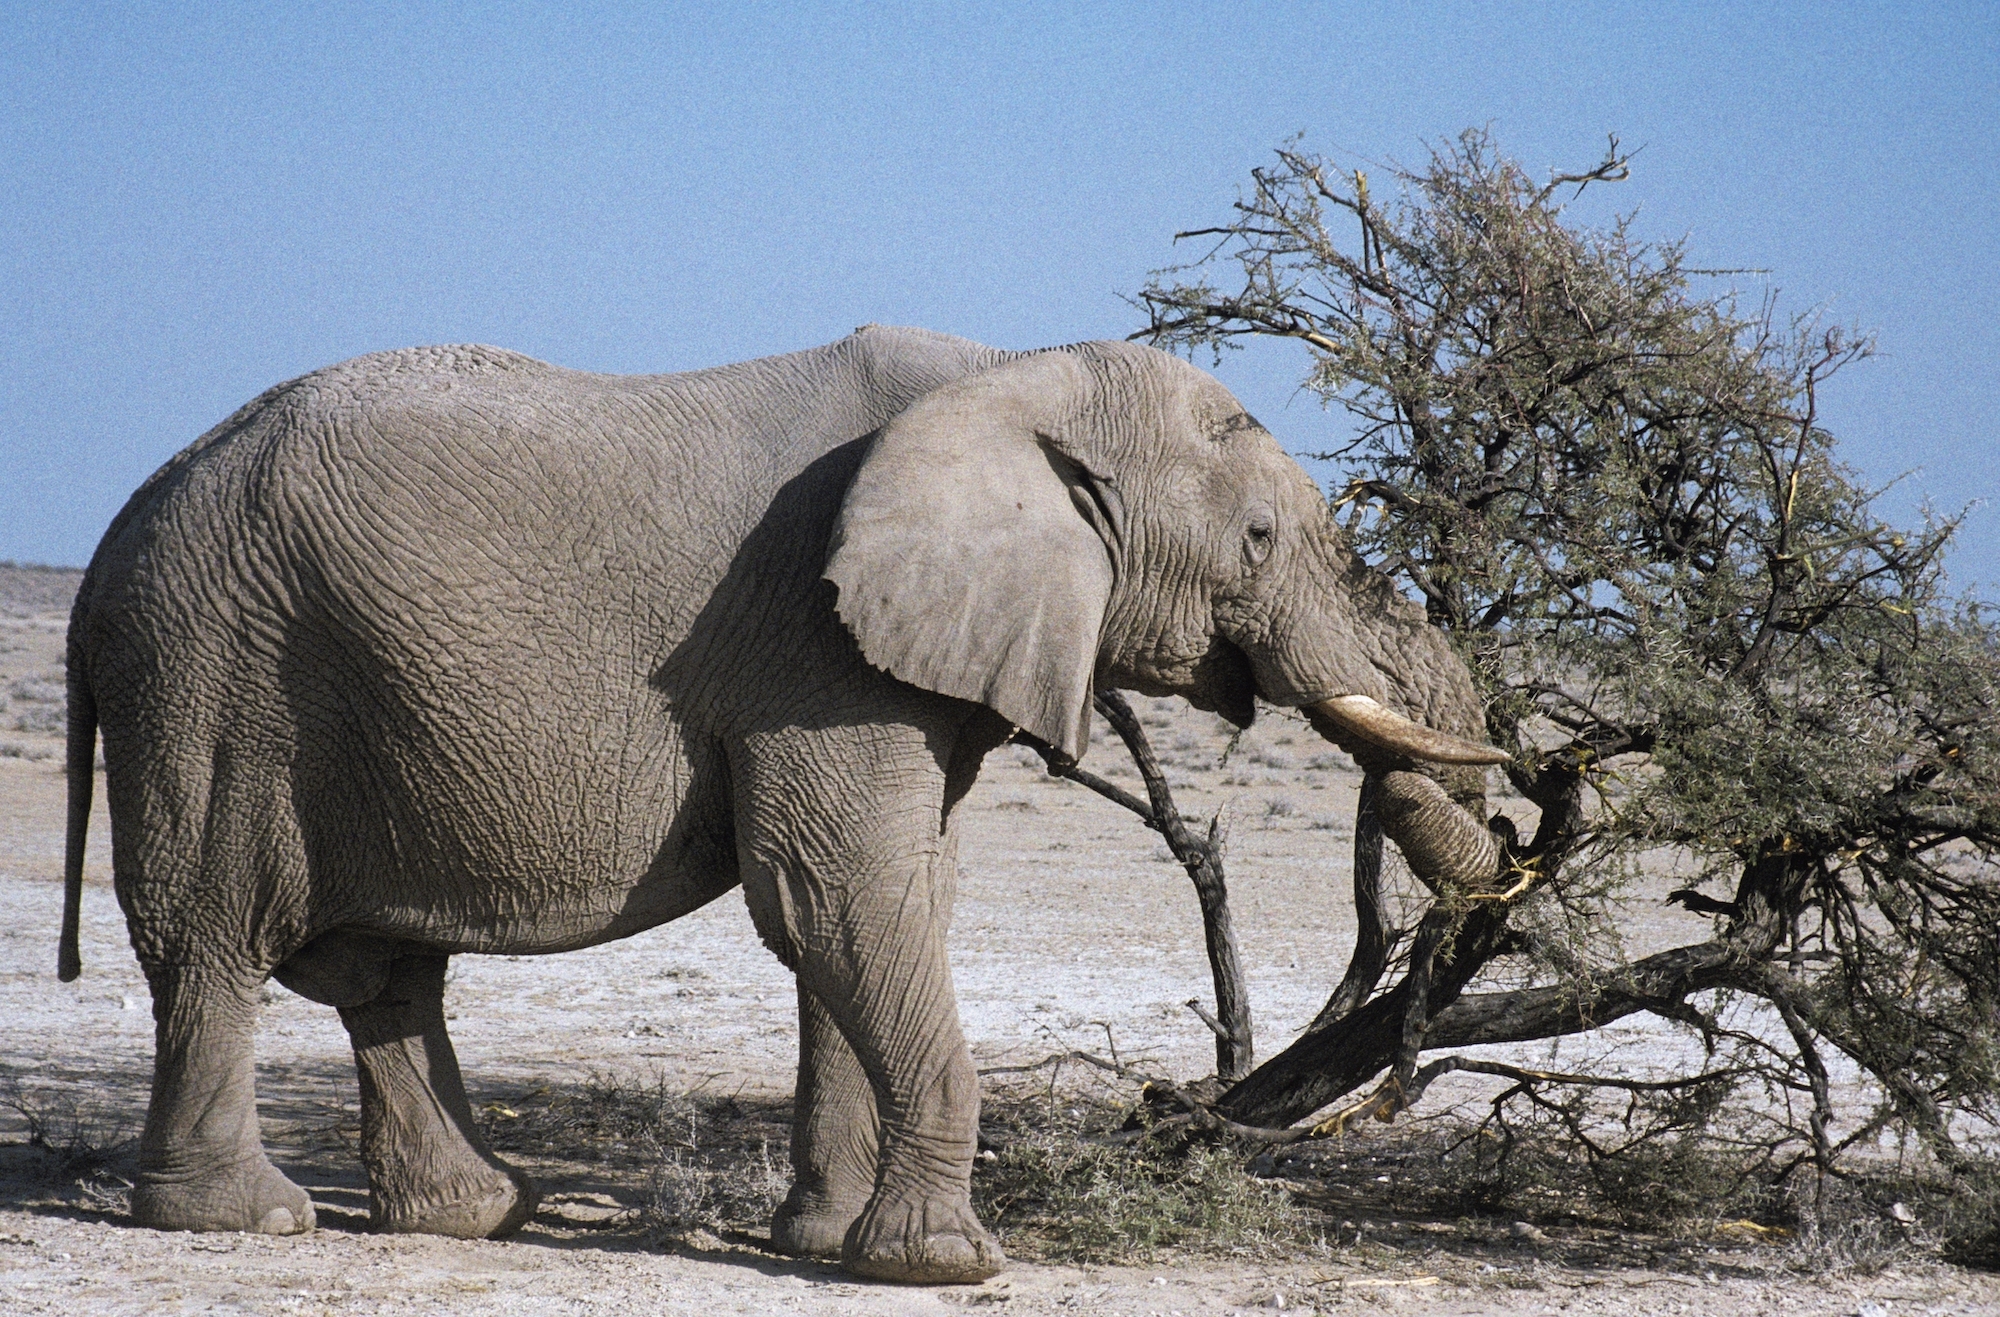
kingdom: Animalia
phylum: Chordata
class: Mammalia
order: Proboscidea
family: Elephantidae
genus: Loxodonta
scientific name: Loxodonta africana
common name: African elephant
